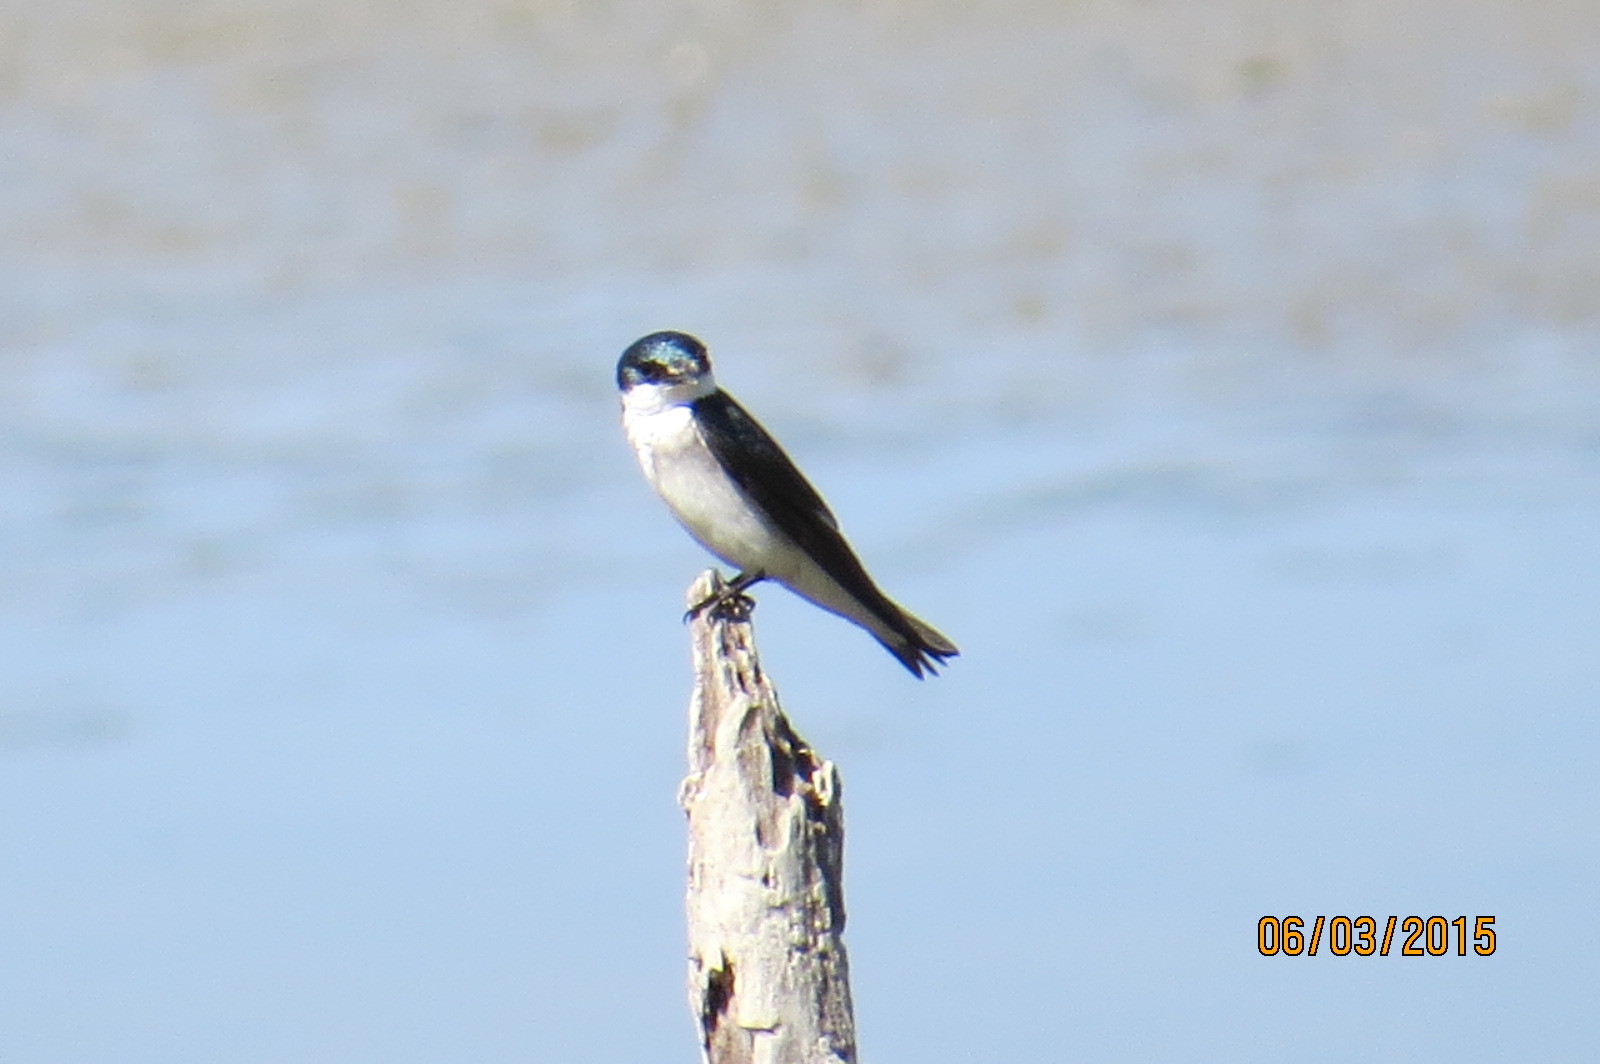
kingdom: Animalia
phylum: Chordata
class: Aves
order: Passeriformes
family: Hirundinidae
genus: Tachycineta
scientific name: Tachycineta albilinea
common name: Mangrove swallow
